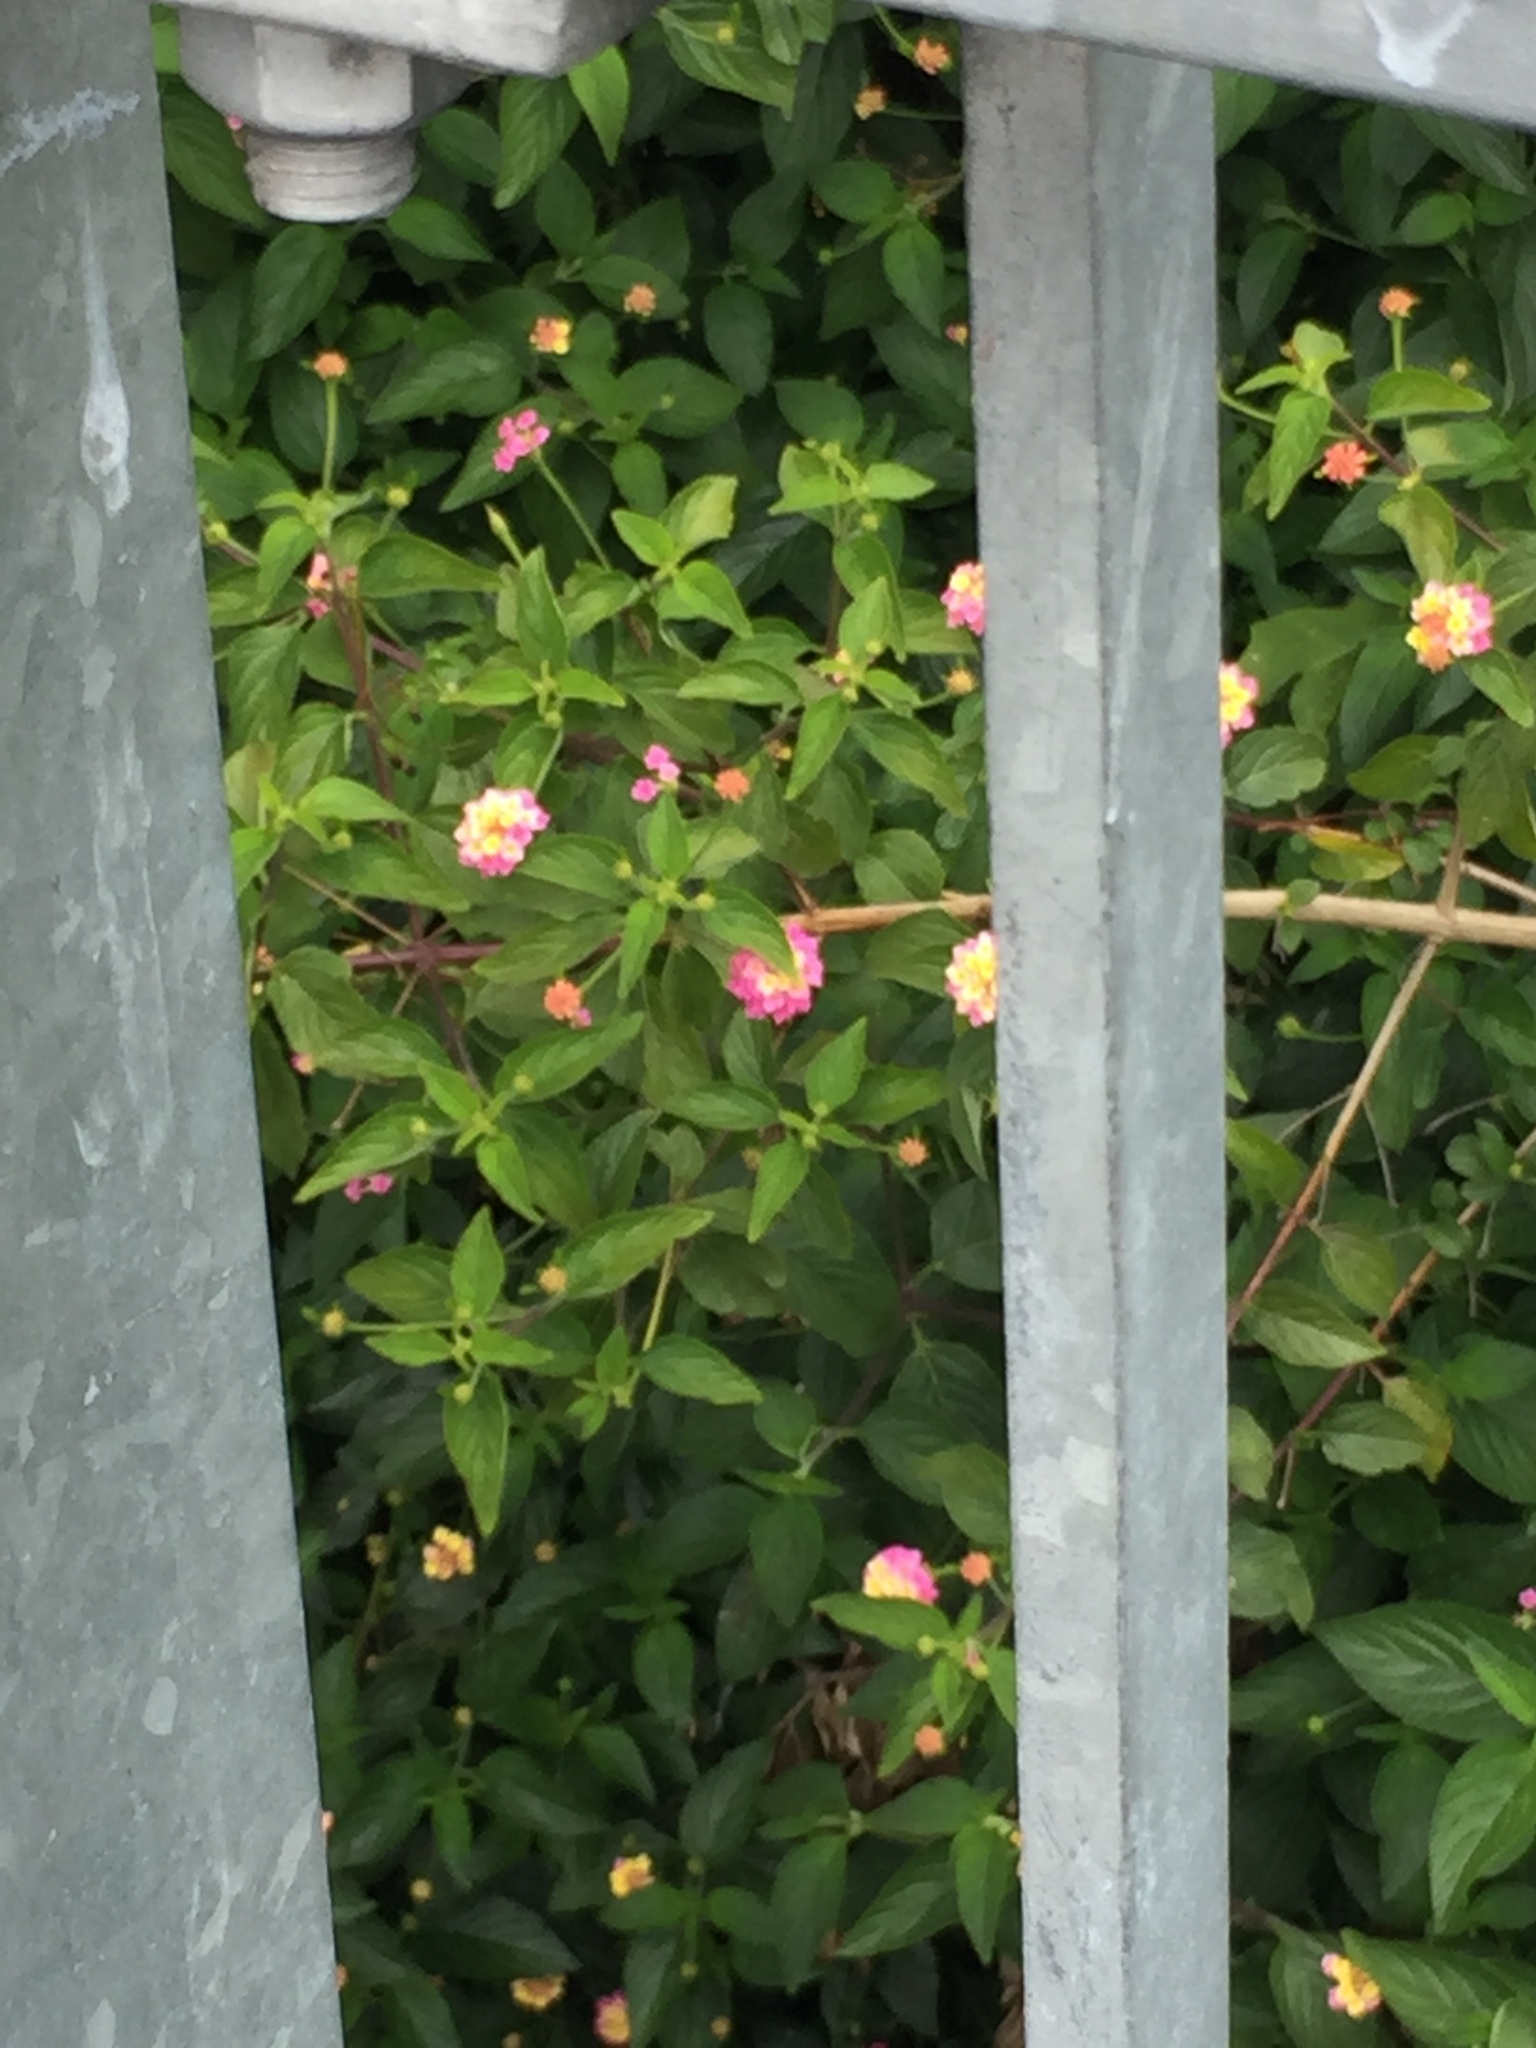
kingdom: Plantae
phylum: Tracheophyta
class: Magnoliopsida
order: Lamiales
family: Verbenaceae
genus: Lantana
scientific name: Lantana camara
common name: Lantana
